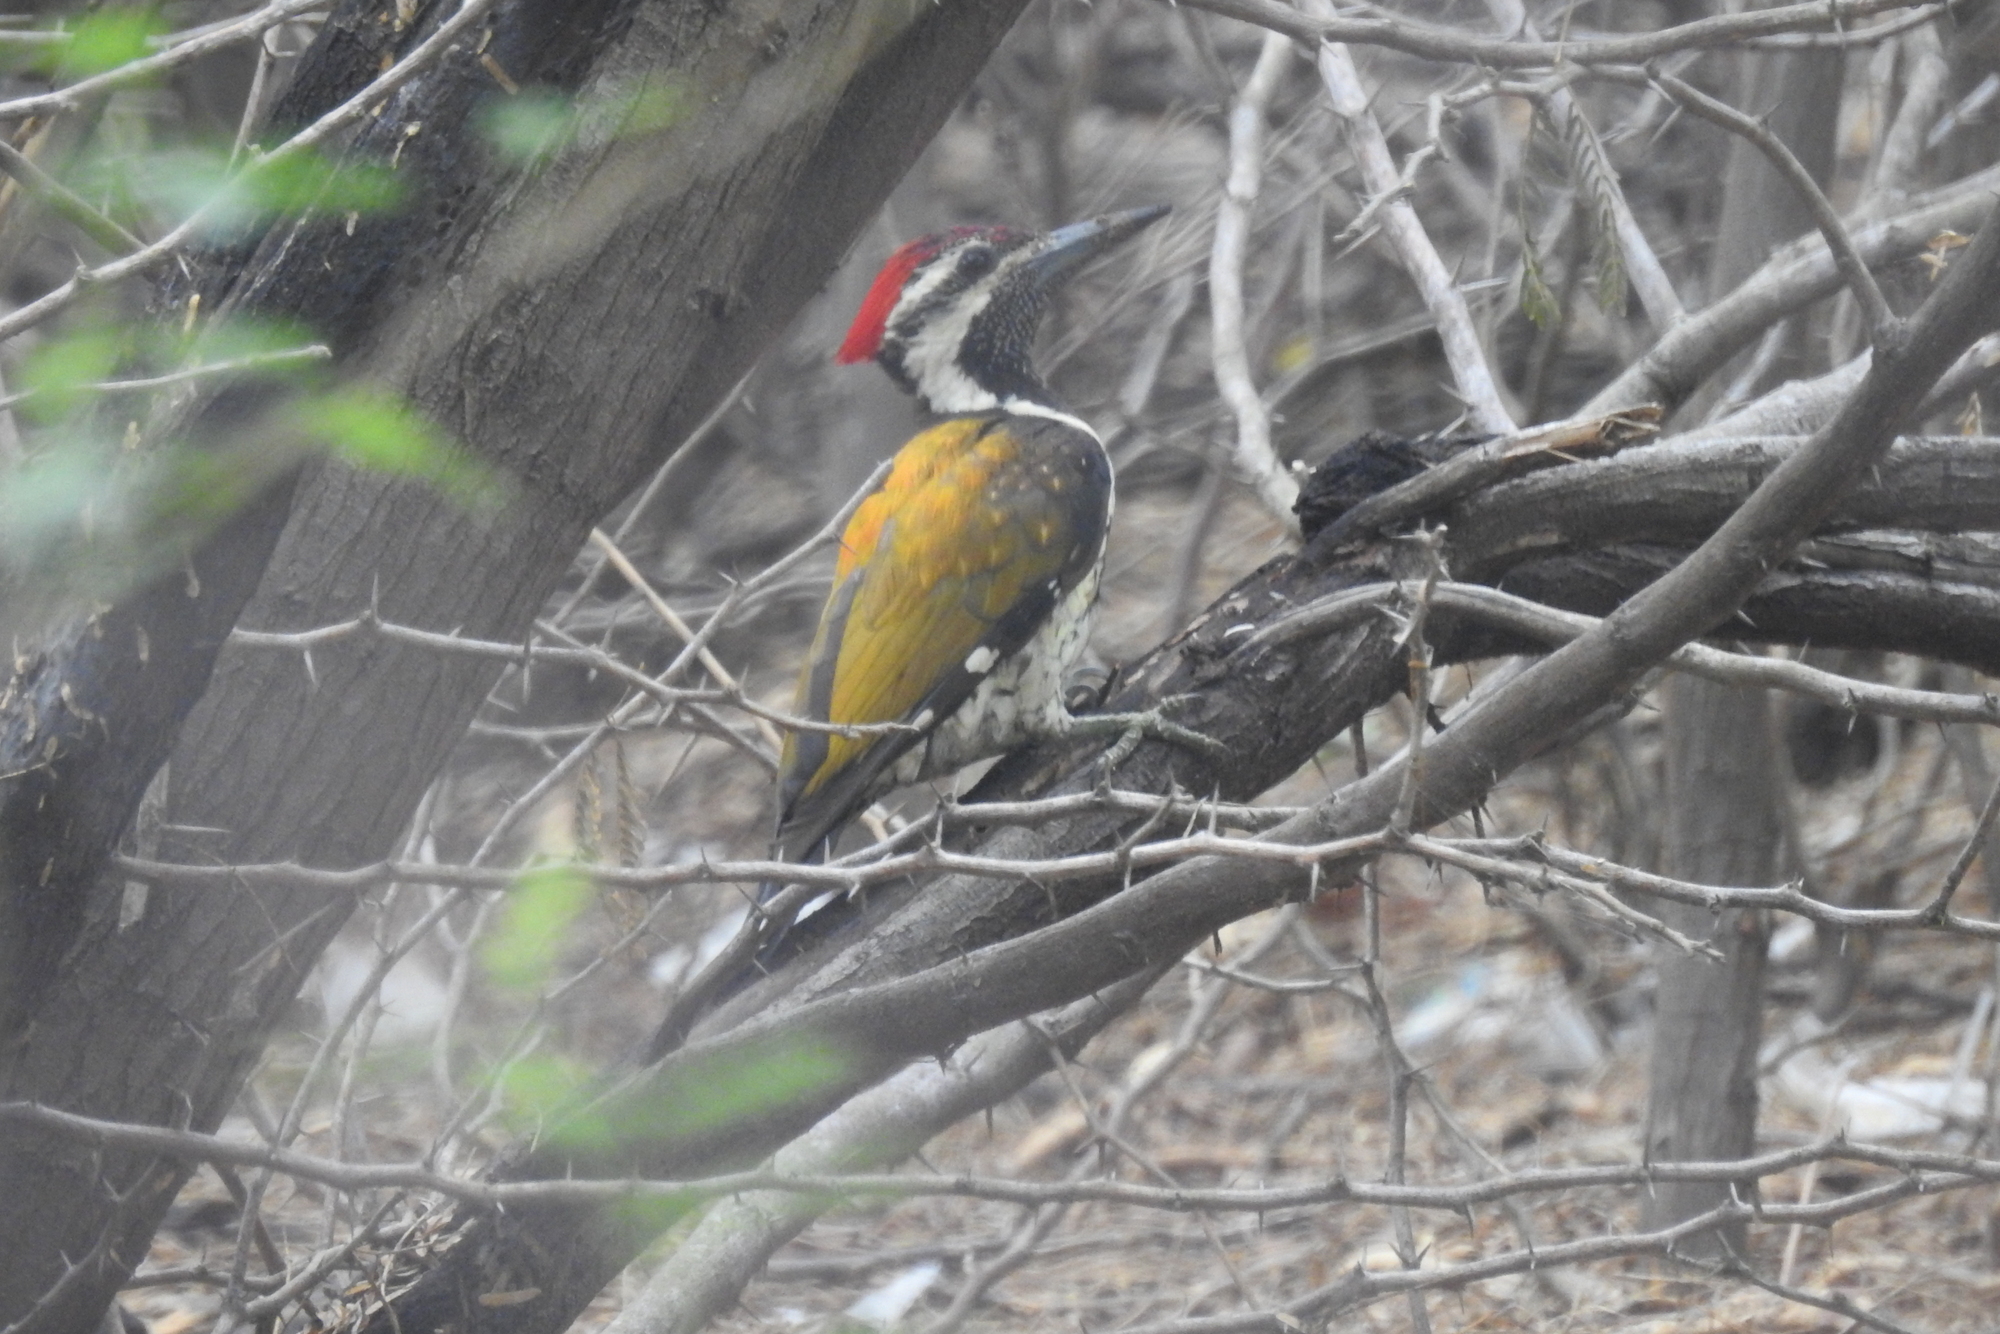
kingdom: Animalia
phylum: Chordata
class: Aves
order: Piciformes
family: Picidae
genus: Dinopium
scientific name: Dinopium benghalense
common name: Black-rumped flameback
